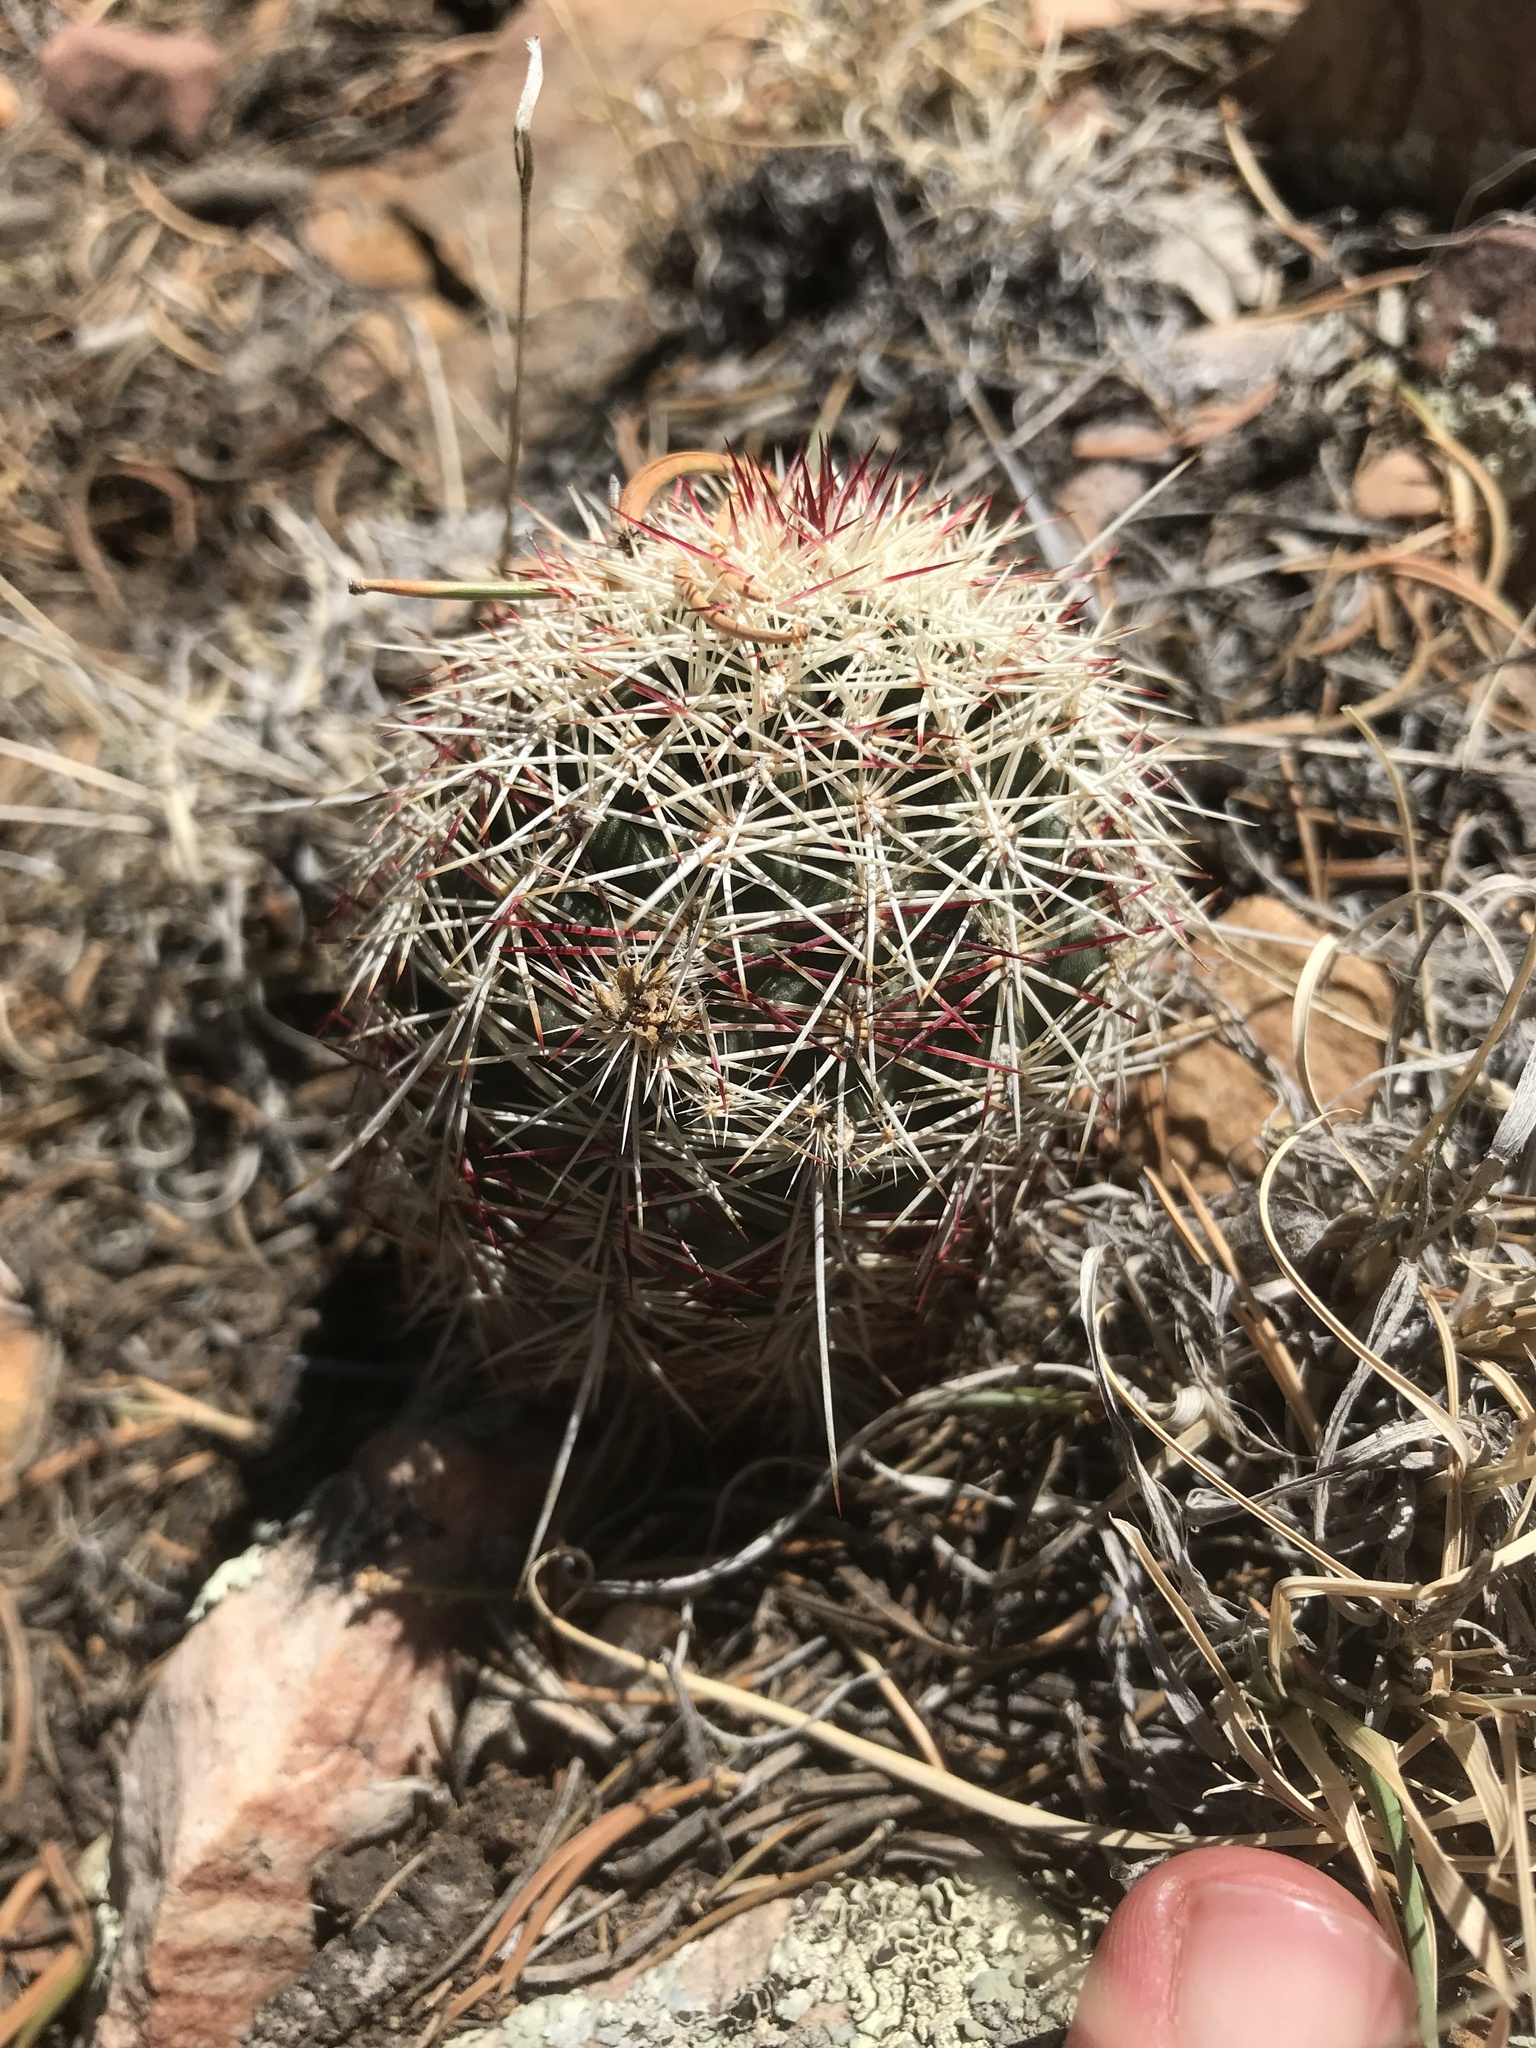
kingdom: Plantae
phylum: Tracheophyta
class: Magnoliopsida
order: Caryophyllales
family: Cactaceae
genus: Echinocereus
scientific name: Echinocereus viridiflorus
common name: Nylon hedgehog cactus
